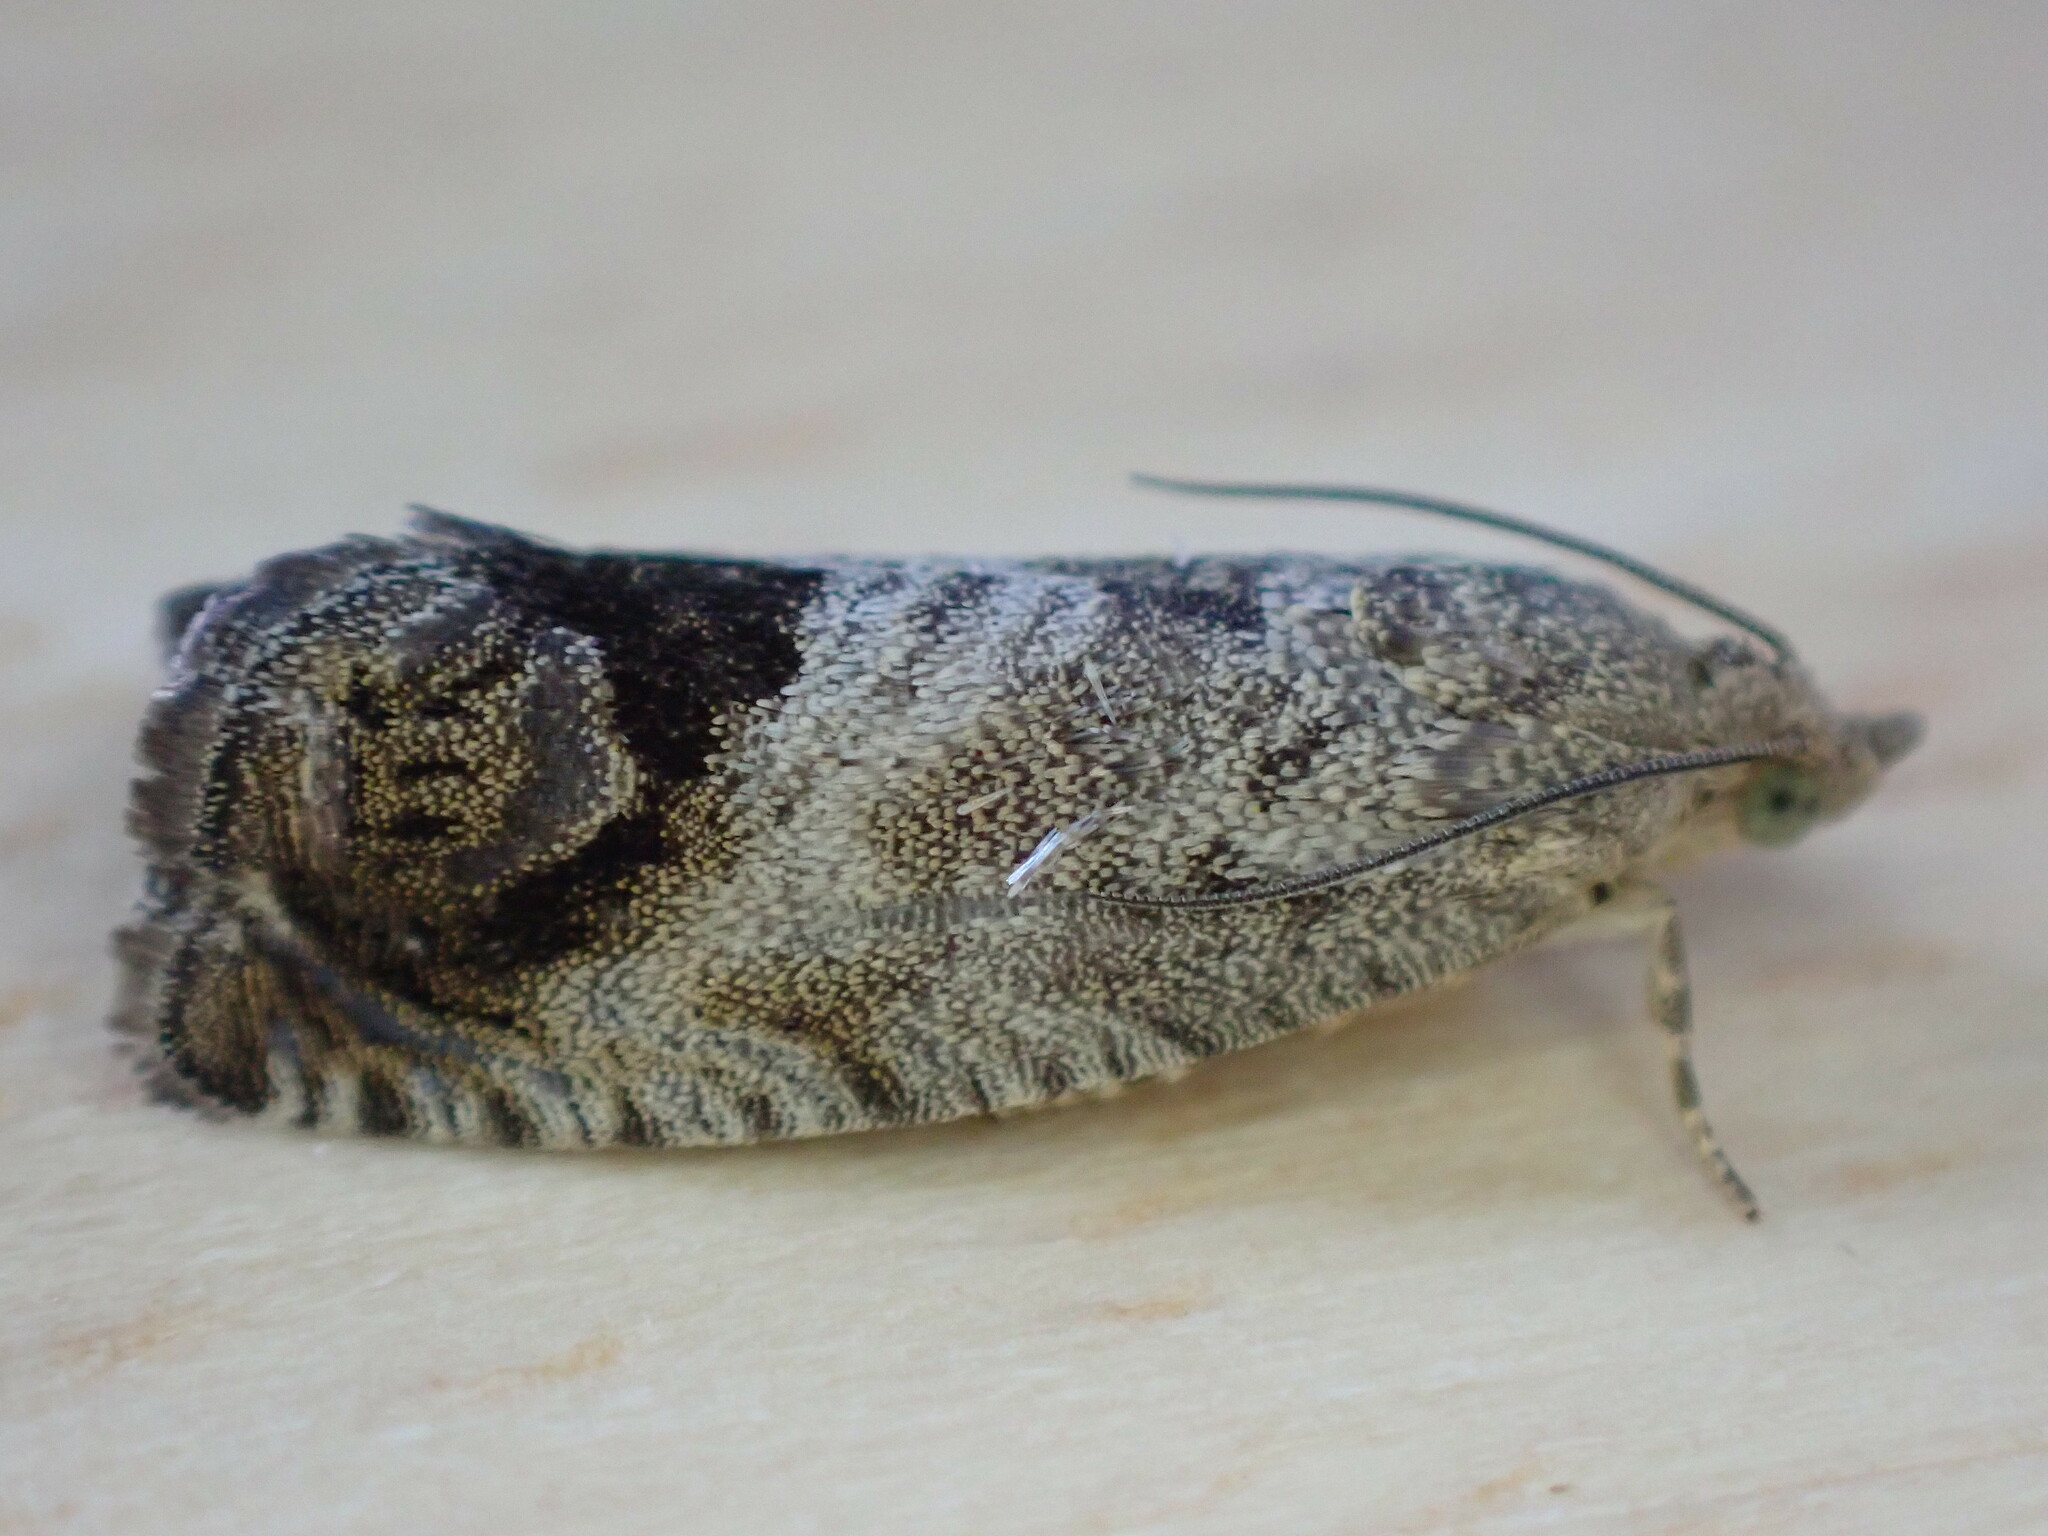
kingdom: Animalia
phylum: Arthropoda
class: Insecta
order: Lepidoptera
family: Tortricidae
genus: Cydia
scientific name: Cydia splendana
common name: De: kastanienwickler, eichenwickler es: oruga de la castaña fr: carpocapse des châtaignes it: cidia o tortrice tardiva delle castagne pt: bichado das castanhas gb: acorn moth, chestnut fruit tortrix
